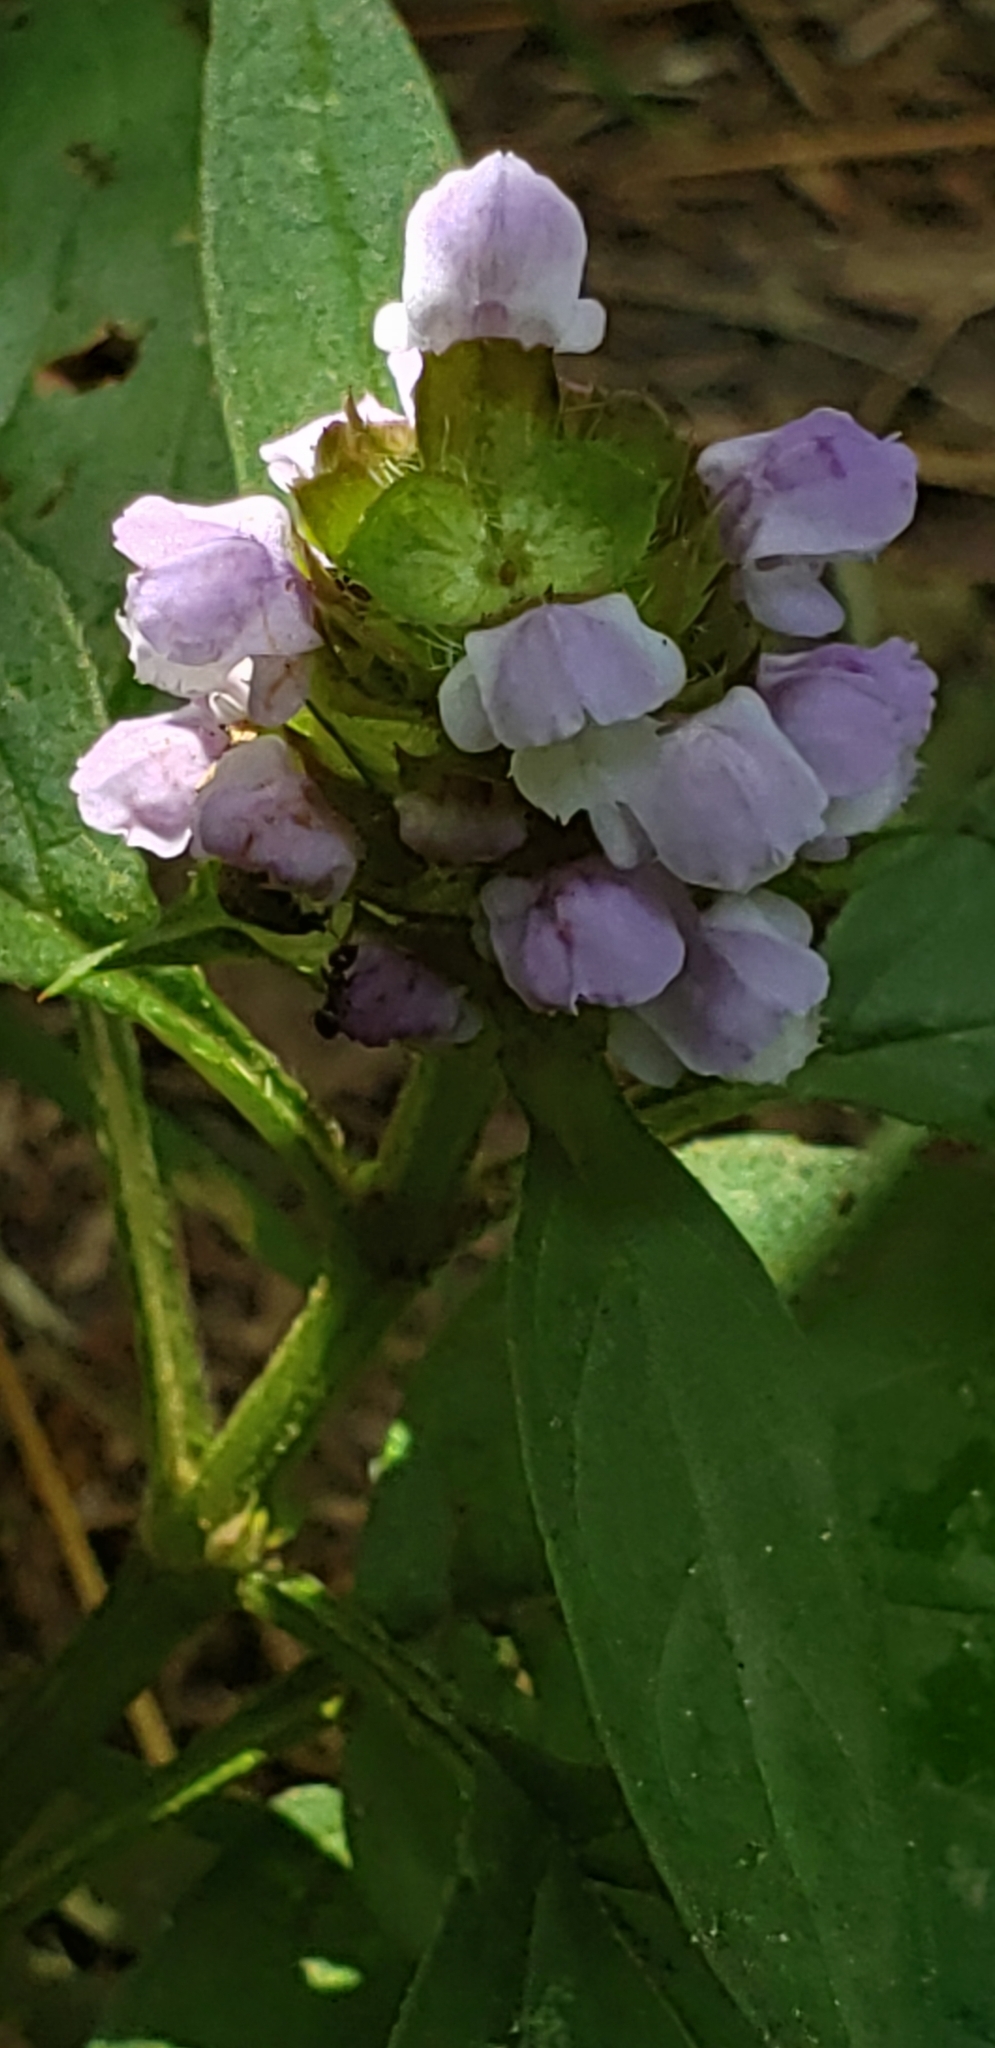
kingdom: Plantae
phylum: Tracheophyta
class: Magnoliopsida
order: Lamiales
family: Lamiaceae
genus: Prunella
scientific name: Prunella vulgaris
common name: Heal-all
